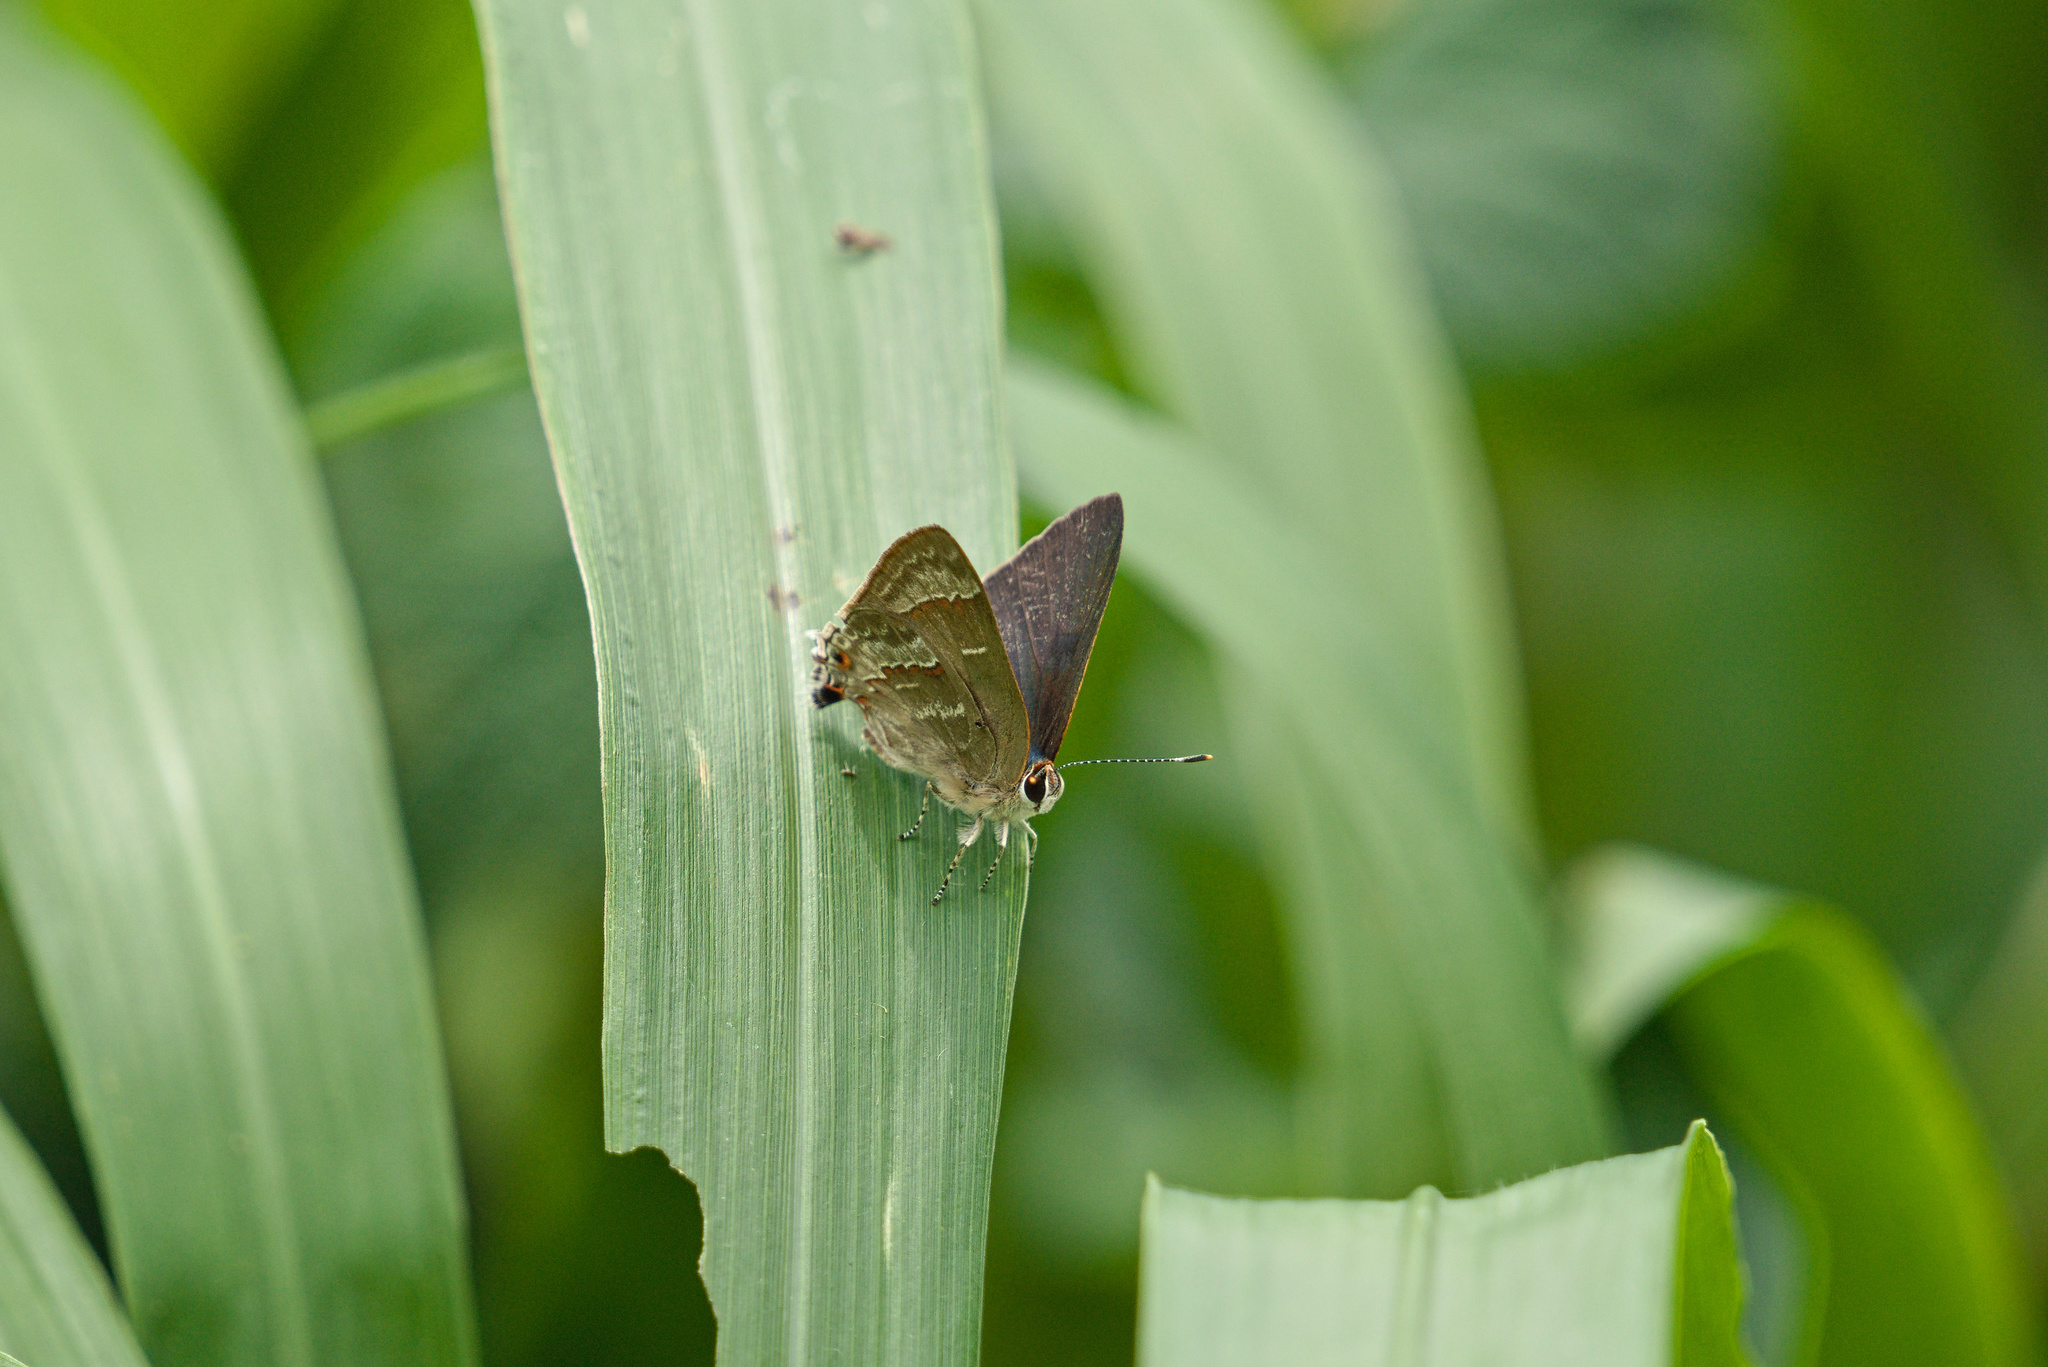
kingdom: Animalia
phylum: Arthropoda
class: Insecta
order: Lepidoptera
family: Lycaenidae
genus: Thecla
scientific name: Thecla yojoa
